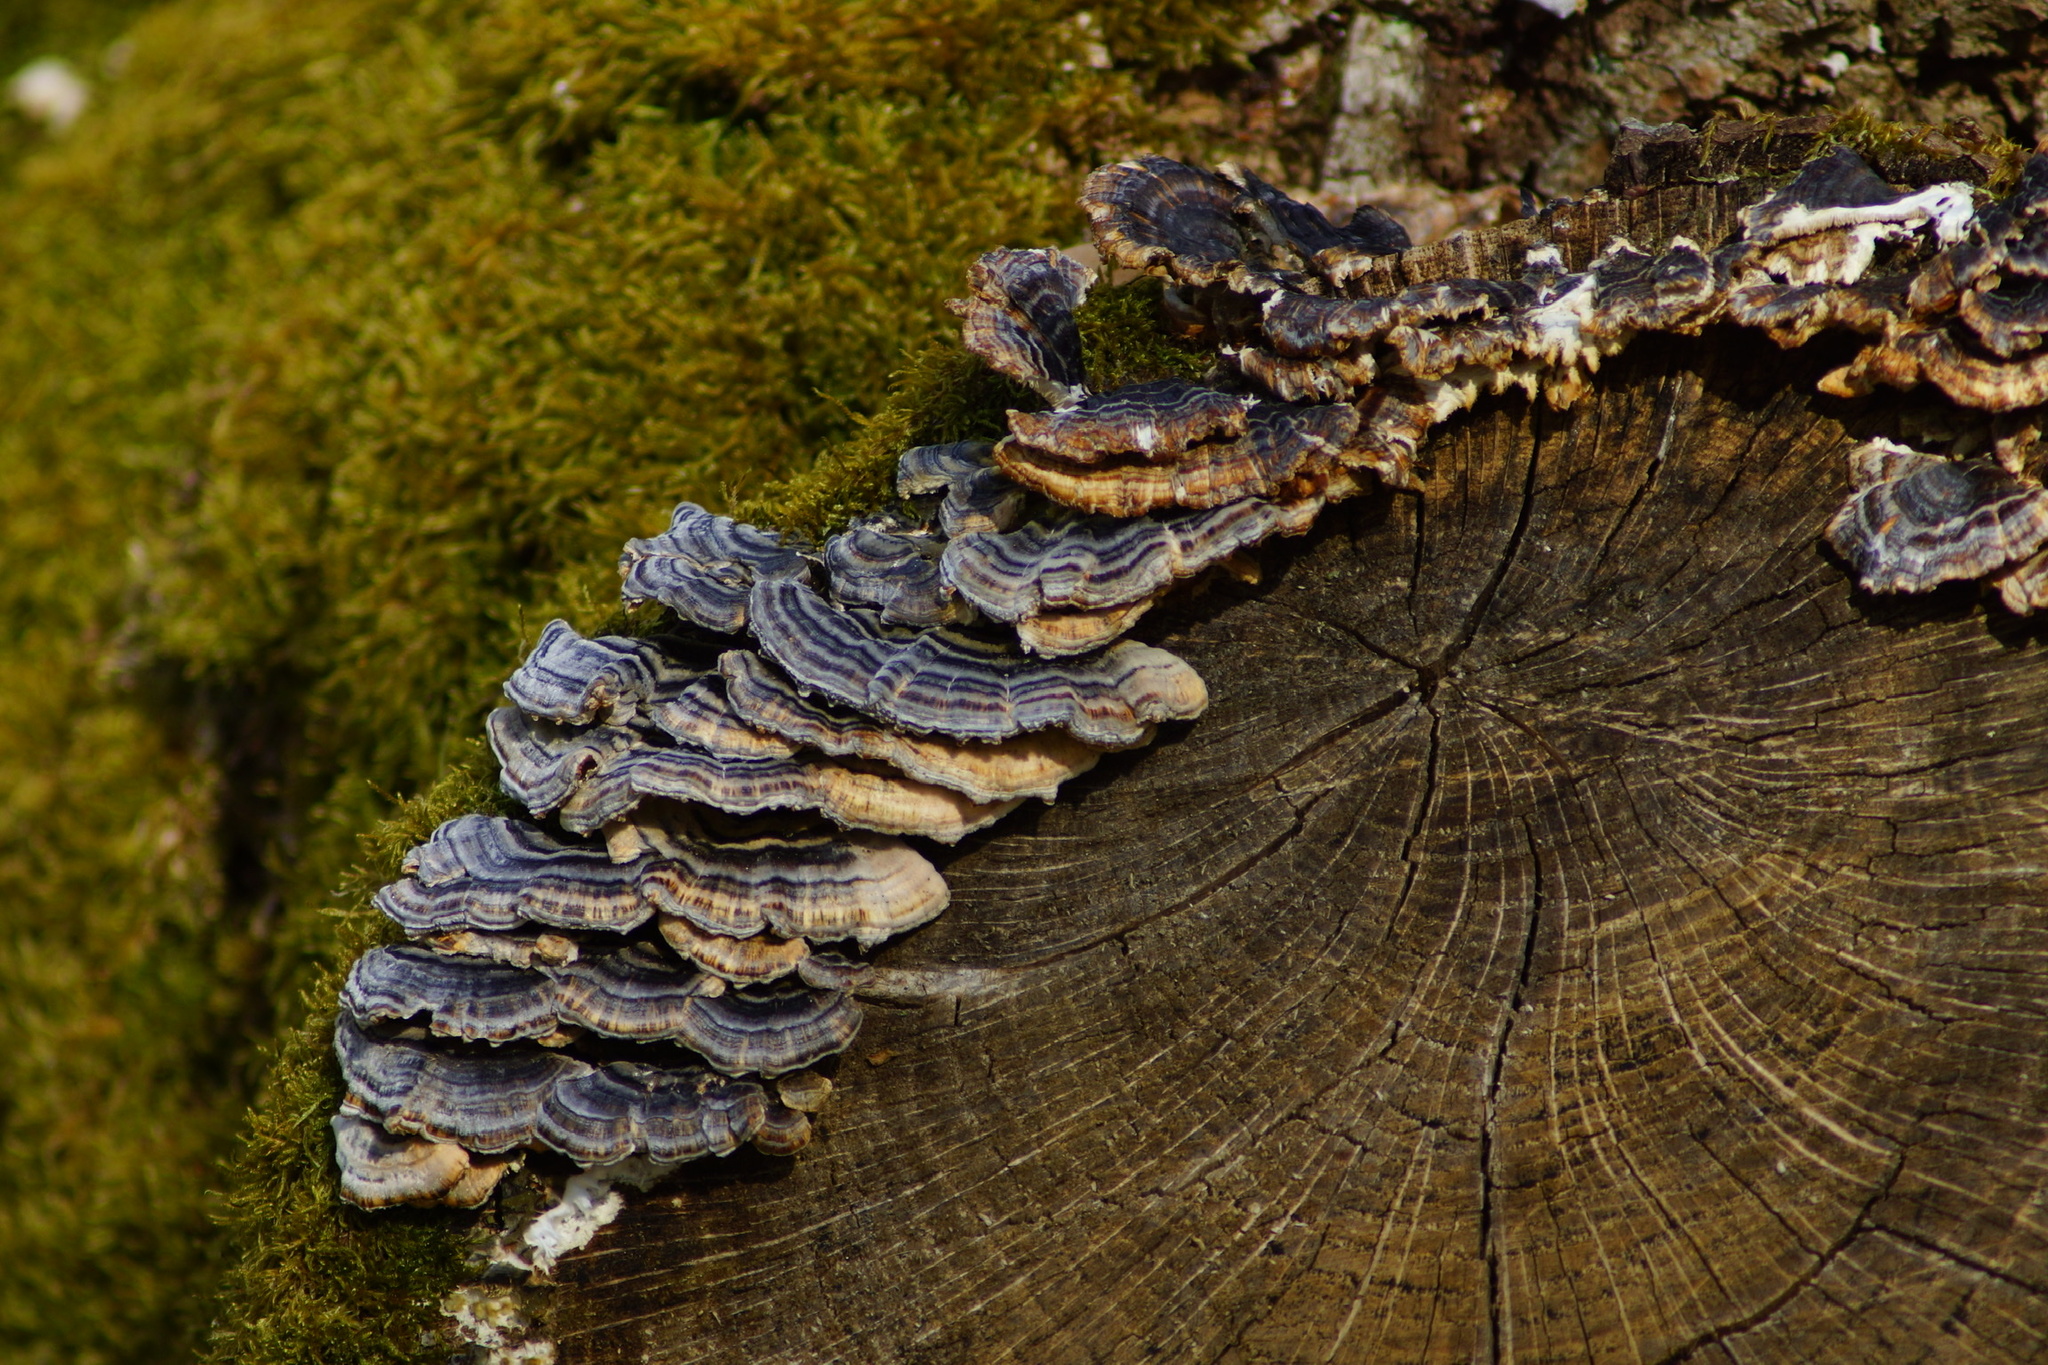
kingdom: Fungi
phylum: Basidiomycota
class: Agaricomycetes
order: Polyporales
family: Polyporaceae
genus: Trametes
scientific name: Trametes versicolor
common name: Turkeytail
